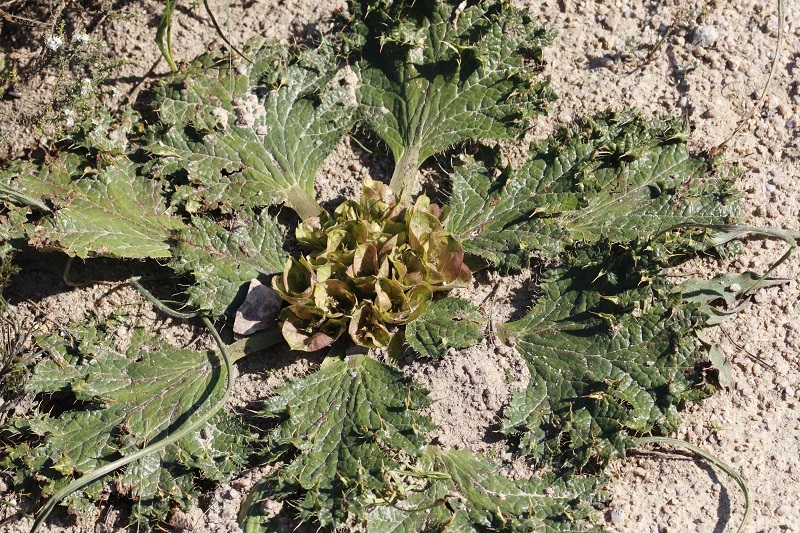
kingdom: Plantae
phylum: Tracheophyta
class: Magnoliopsida
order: Apiales
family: Apiaceae
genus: Arctopus
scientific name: Arctopus monacanthus
